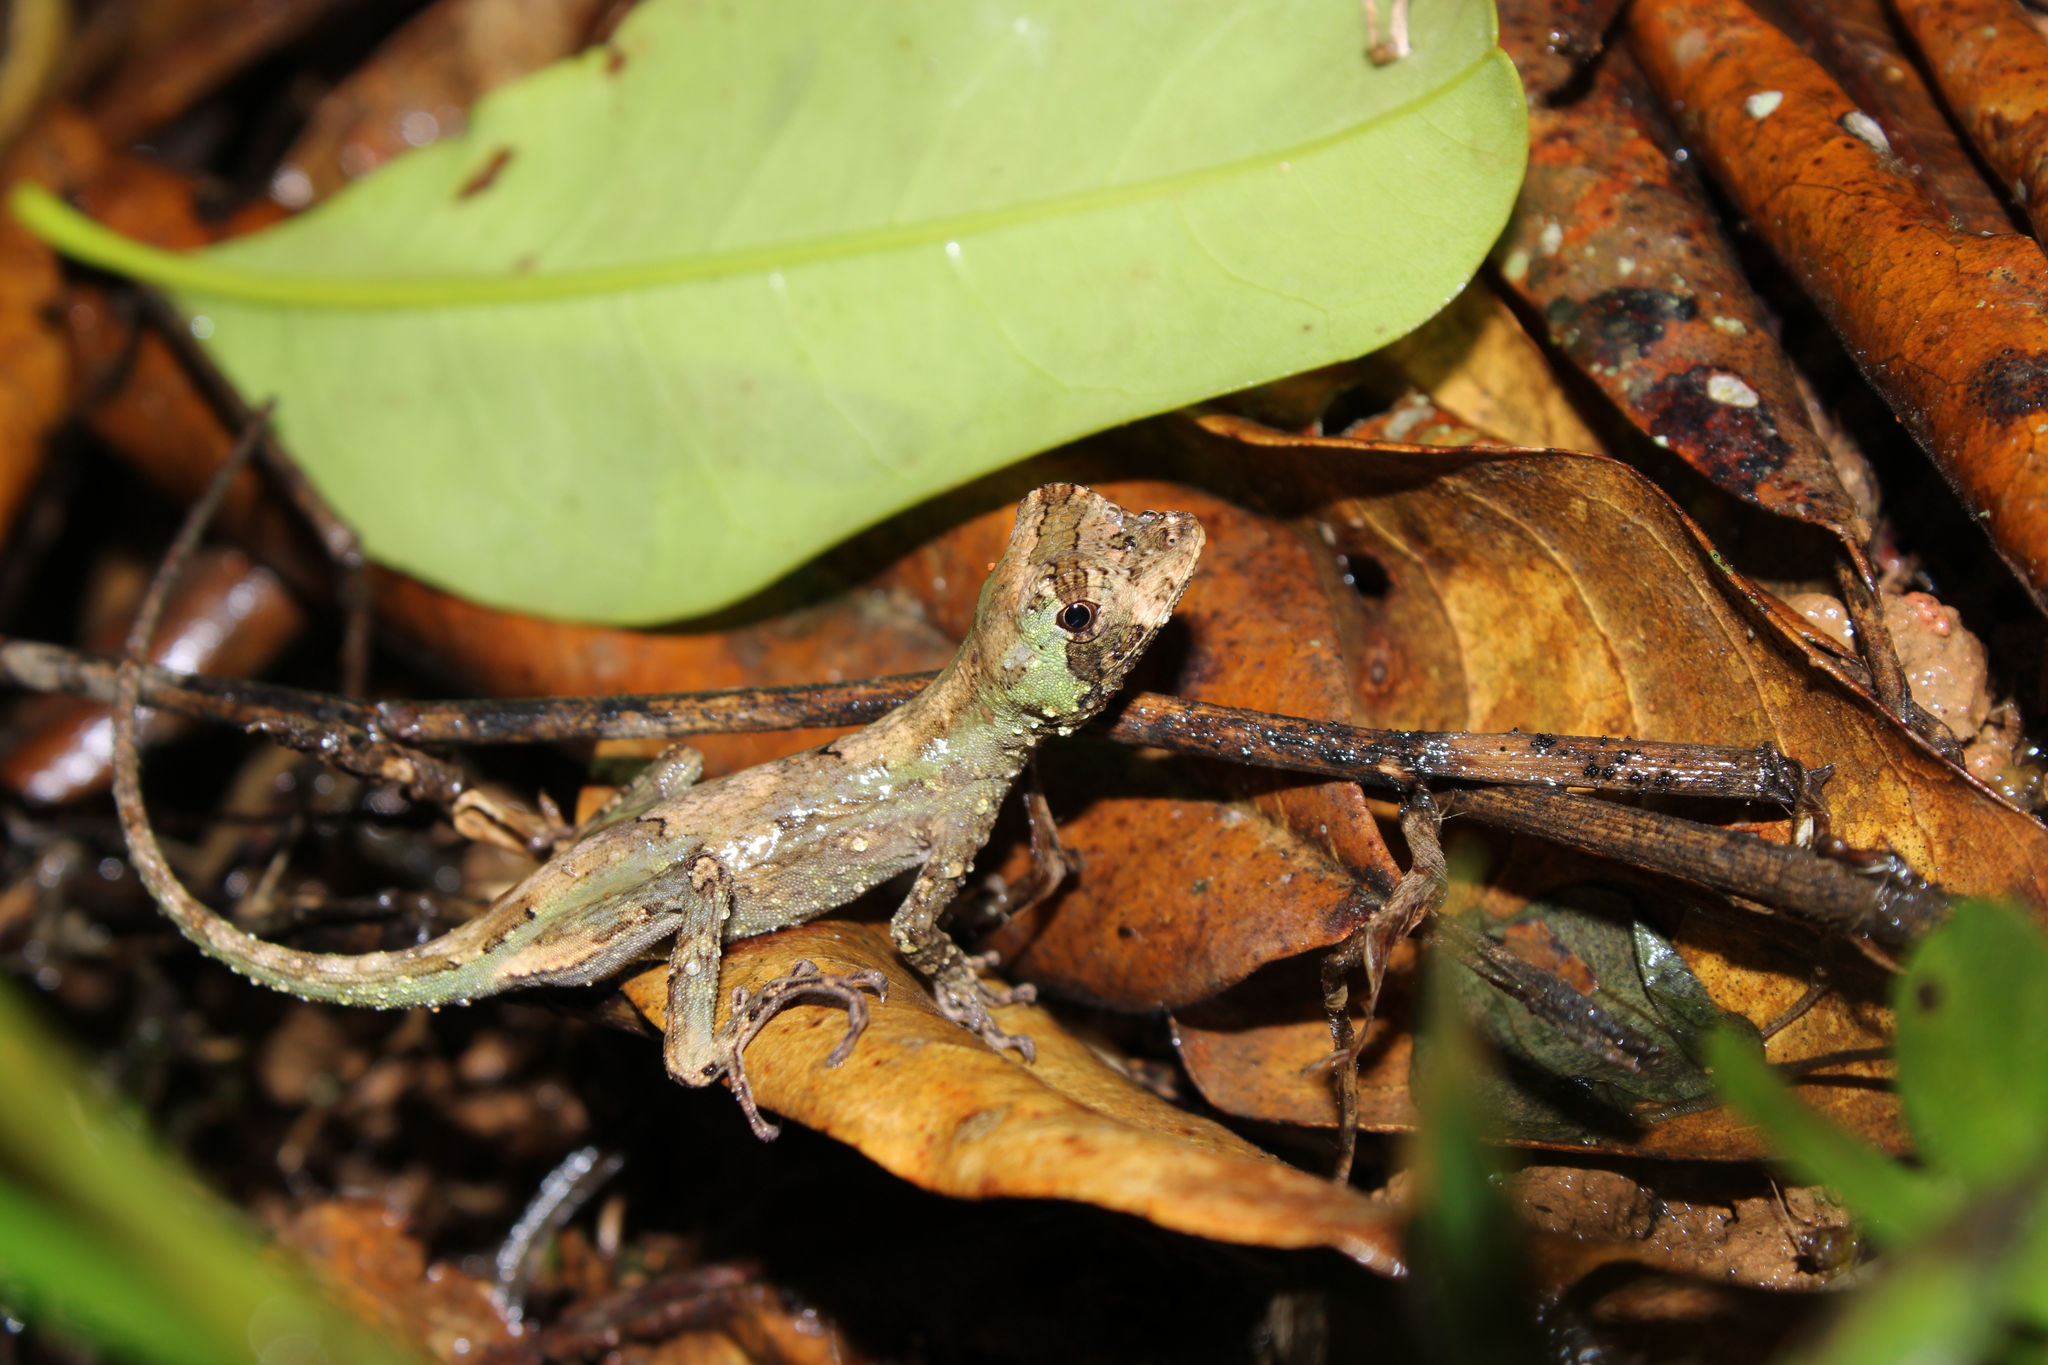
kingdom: Animalia
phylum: Chordata
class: Squamata
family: Dactyloidae
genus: Anolis
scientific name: Anolis capito
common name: Bighead anole
